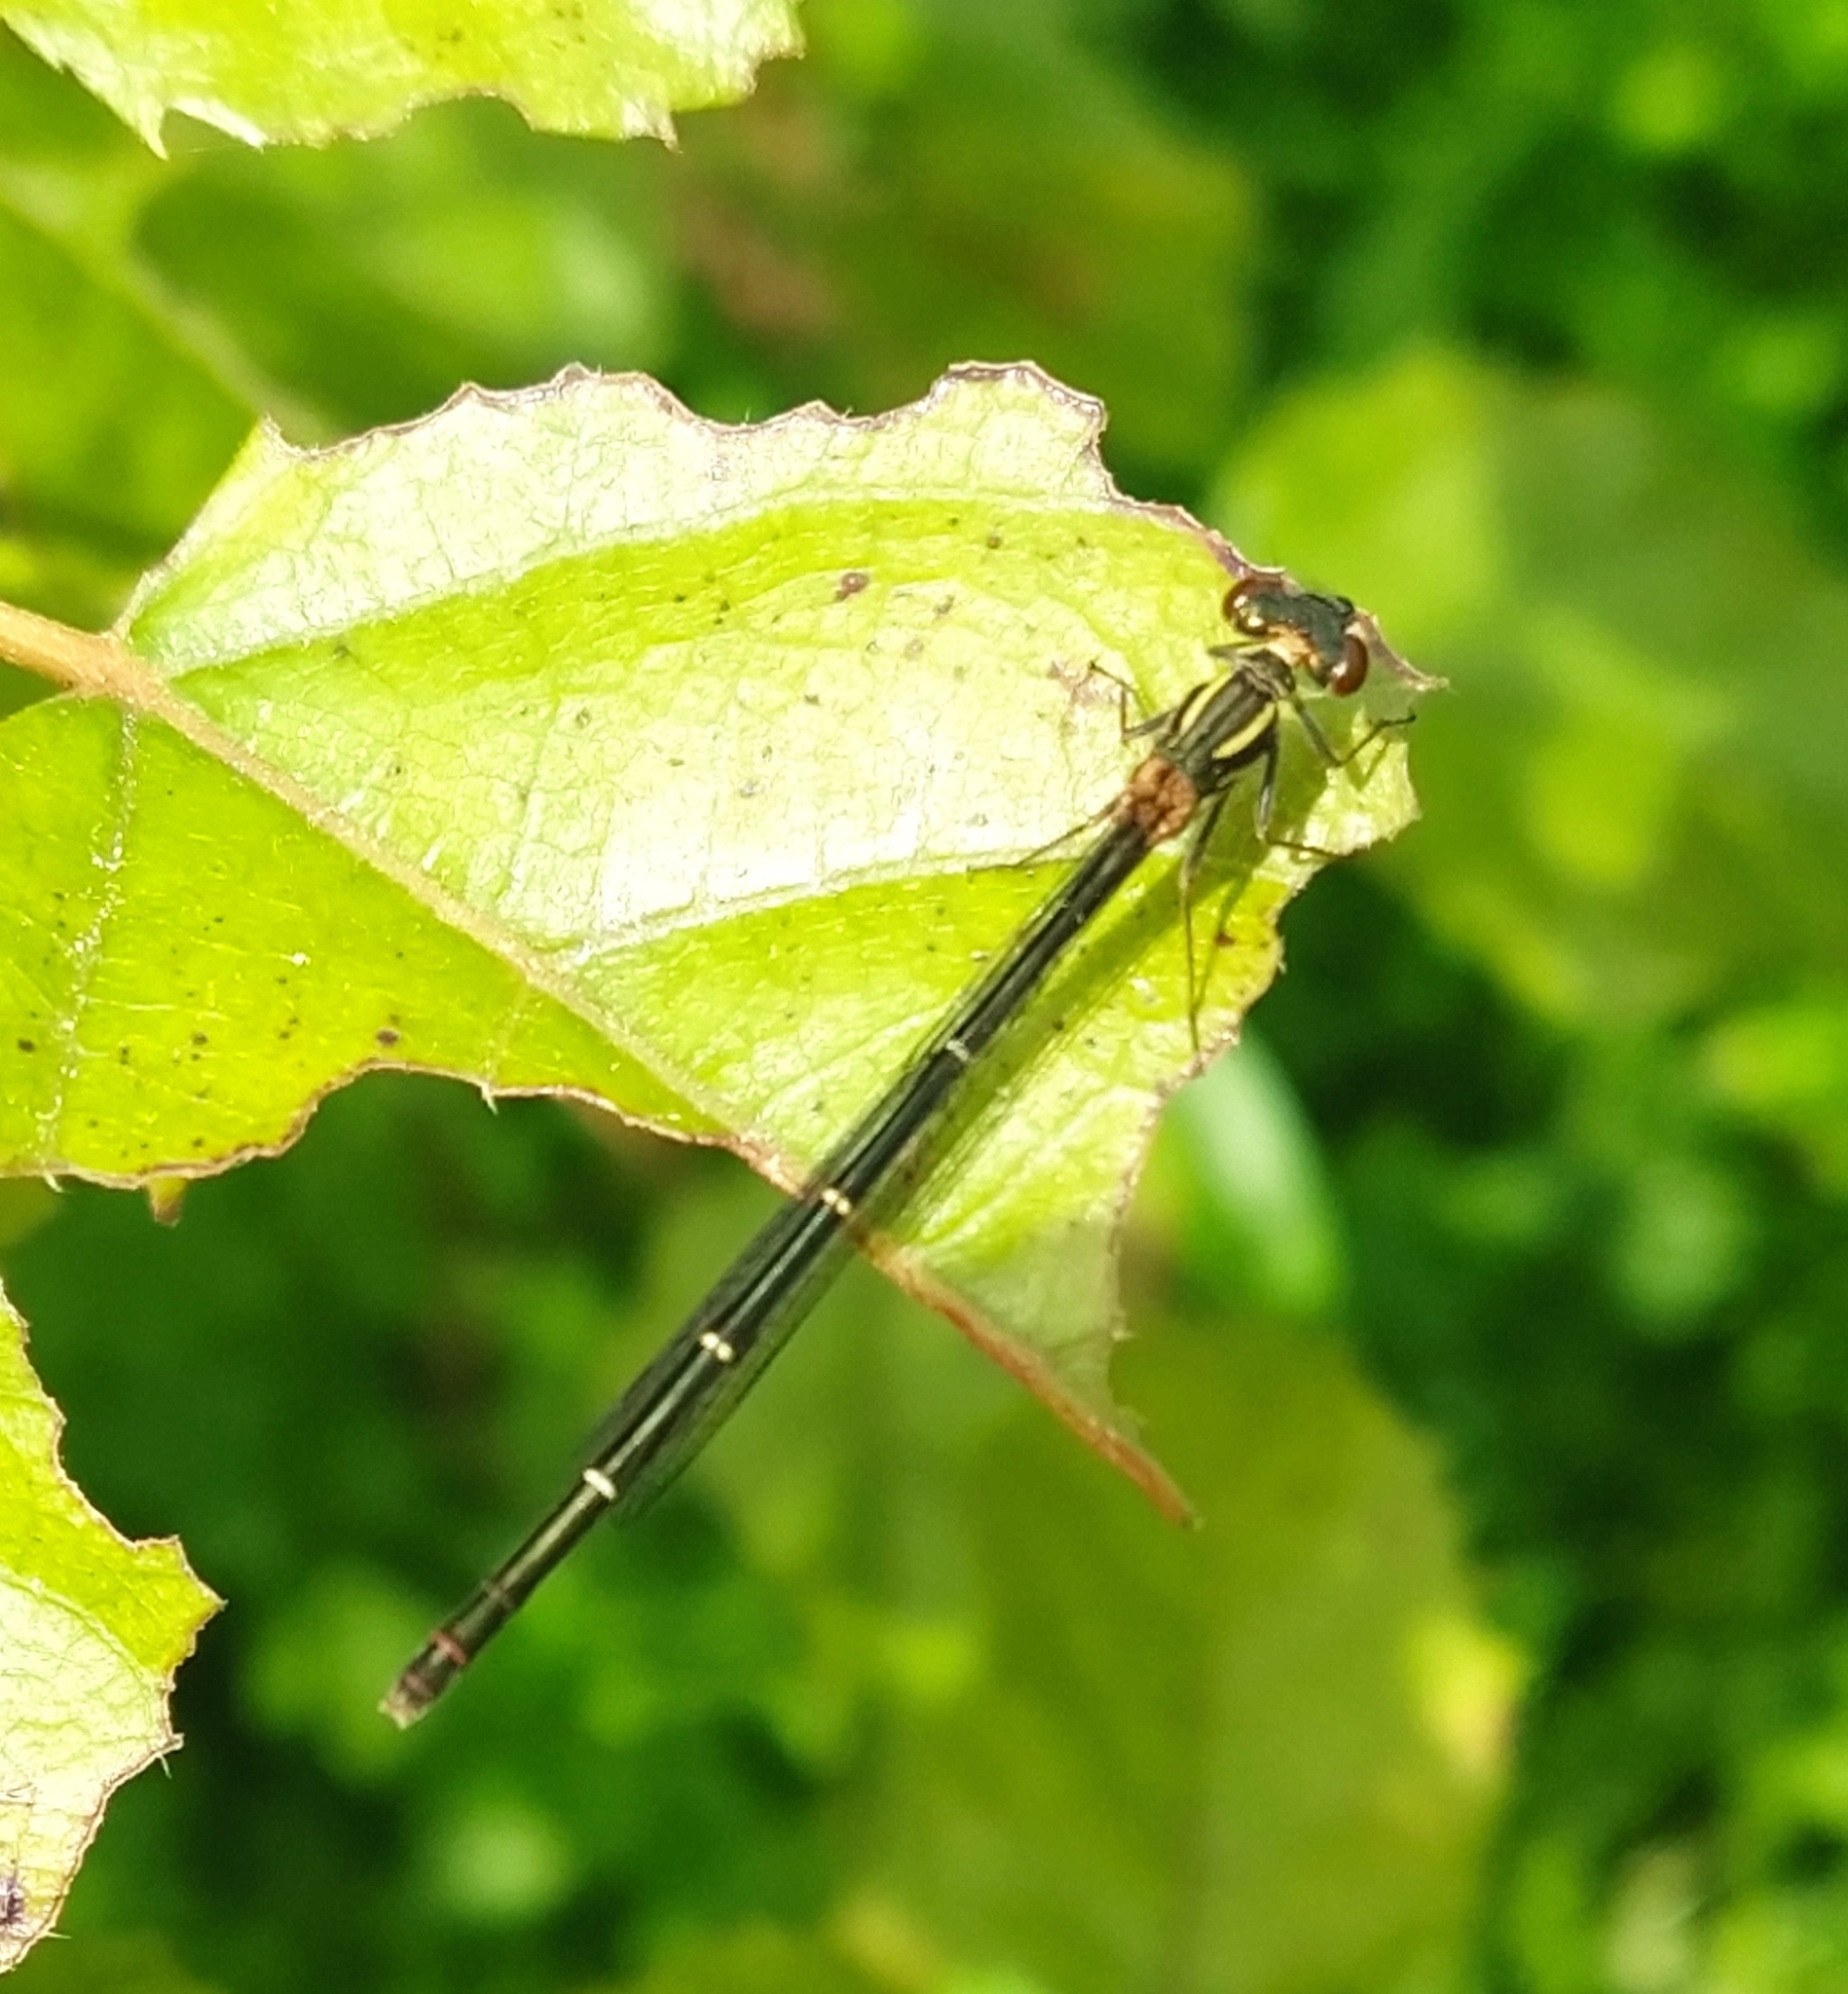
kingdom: Animalia
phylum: Arthropoda
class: Insecta
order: Odonata
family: Coenagrionidae
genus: Xanthocnemis
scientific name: Xanthocnemis zealandica
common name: Common redcoat damselfly
